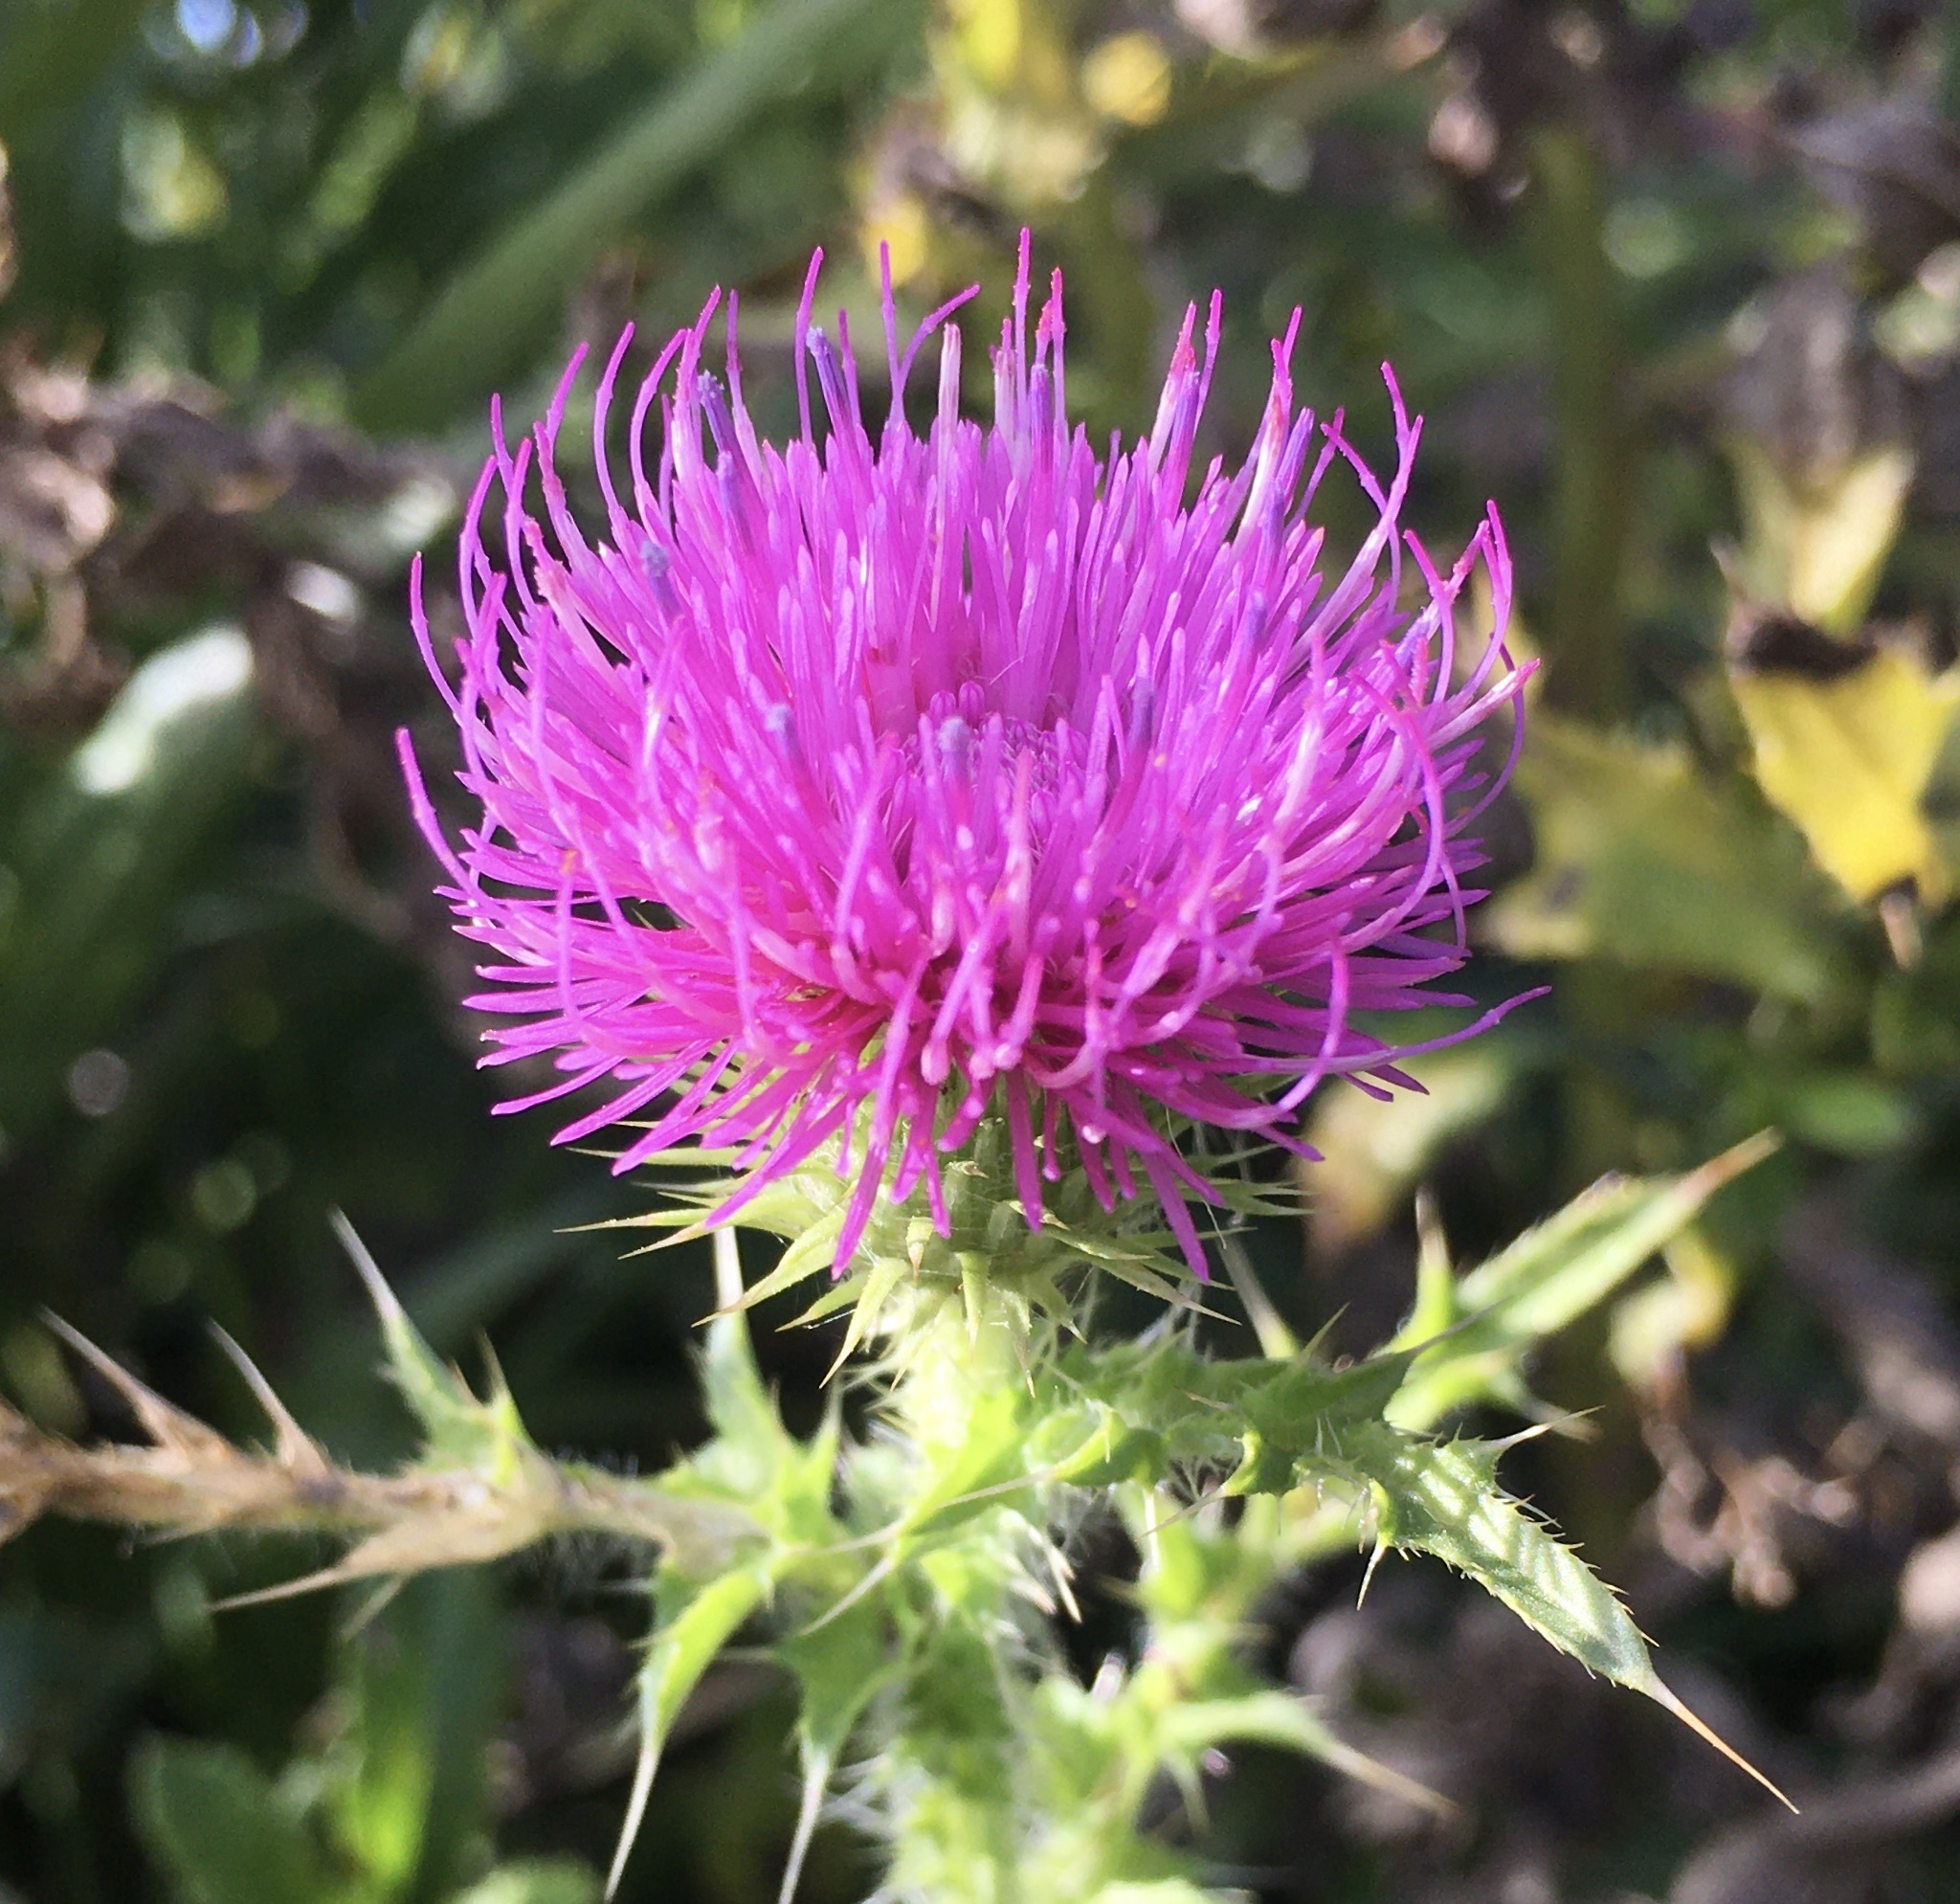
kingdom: Plantae
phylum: Tracheophyta
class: Magnoliopsida
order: Asterales
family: Asteraceae
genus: Carduus
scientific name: Carduus acanthoides
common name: Plumeless thistle
